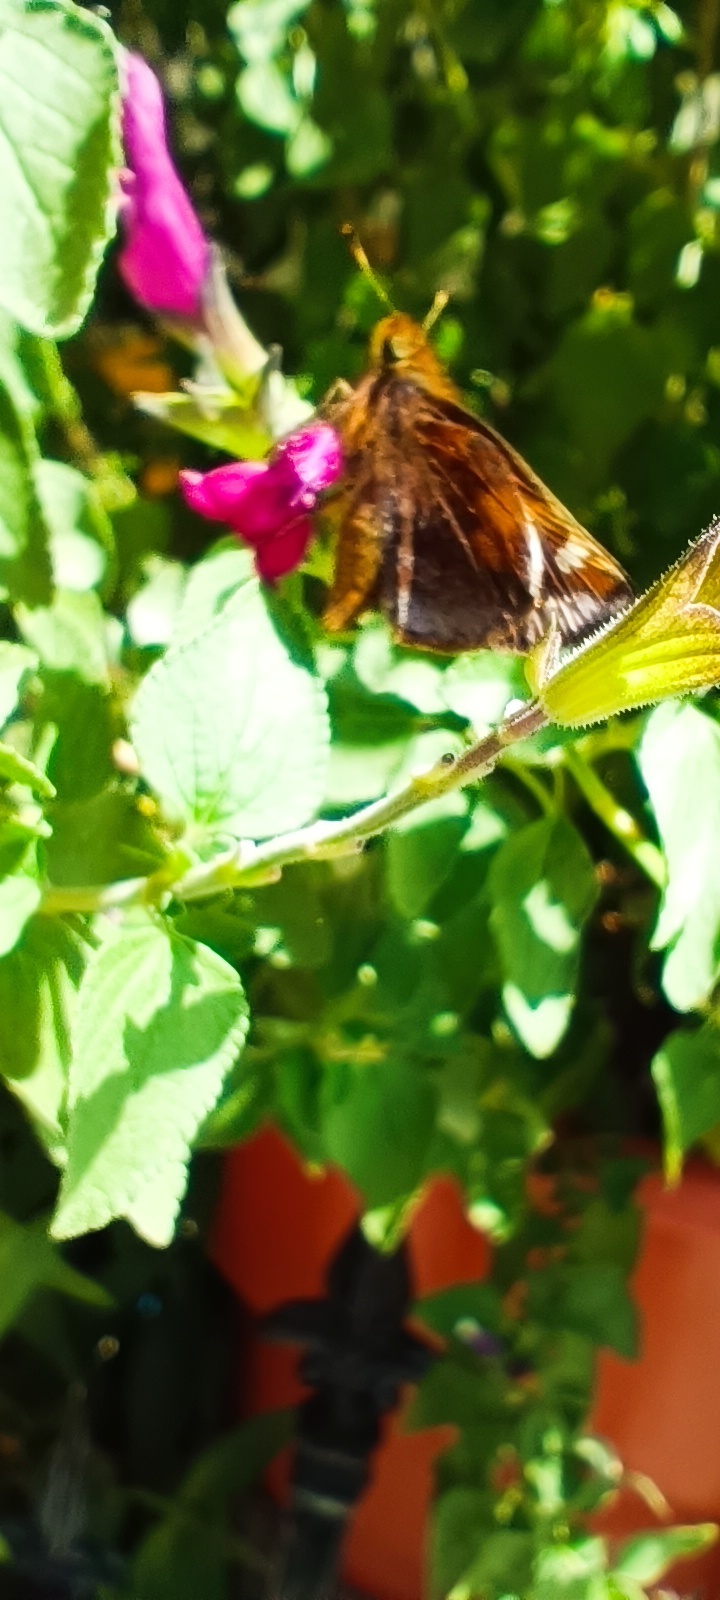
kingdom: Animalia
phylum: Arthropoda
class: Insecta
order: Lepidoptera
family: Hesperiidae
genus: Lon
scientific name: Lon zabulon
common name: Zabulon skipper
